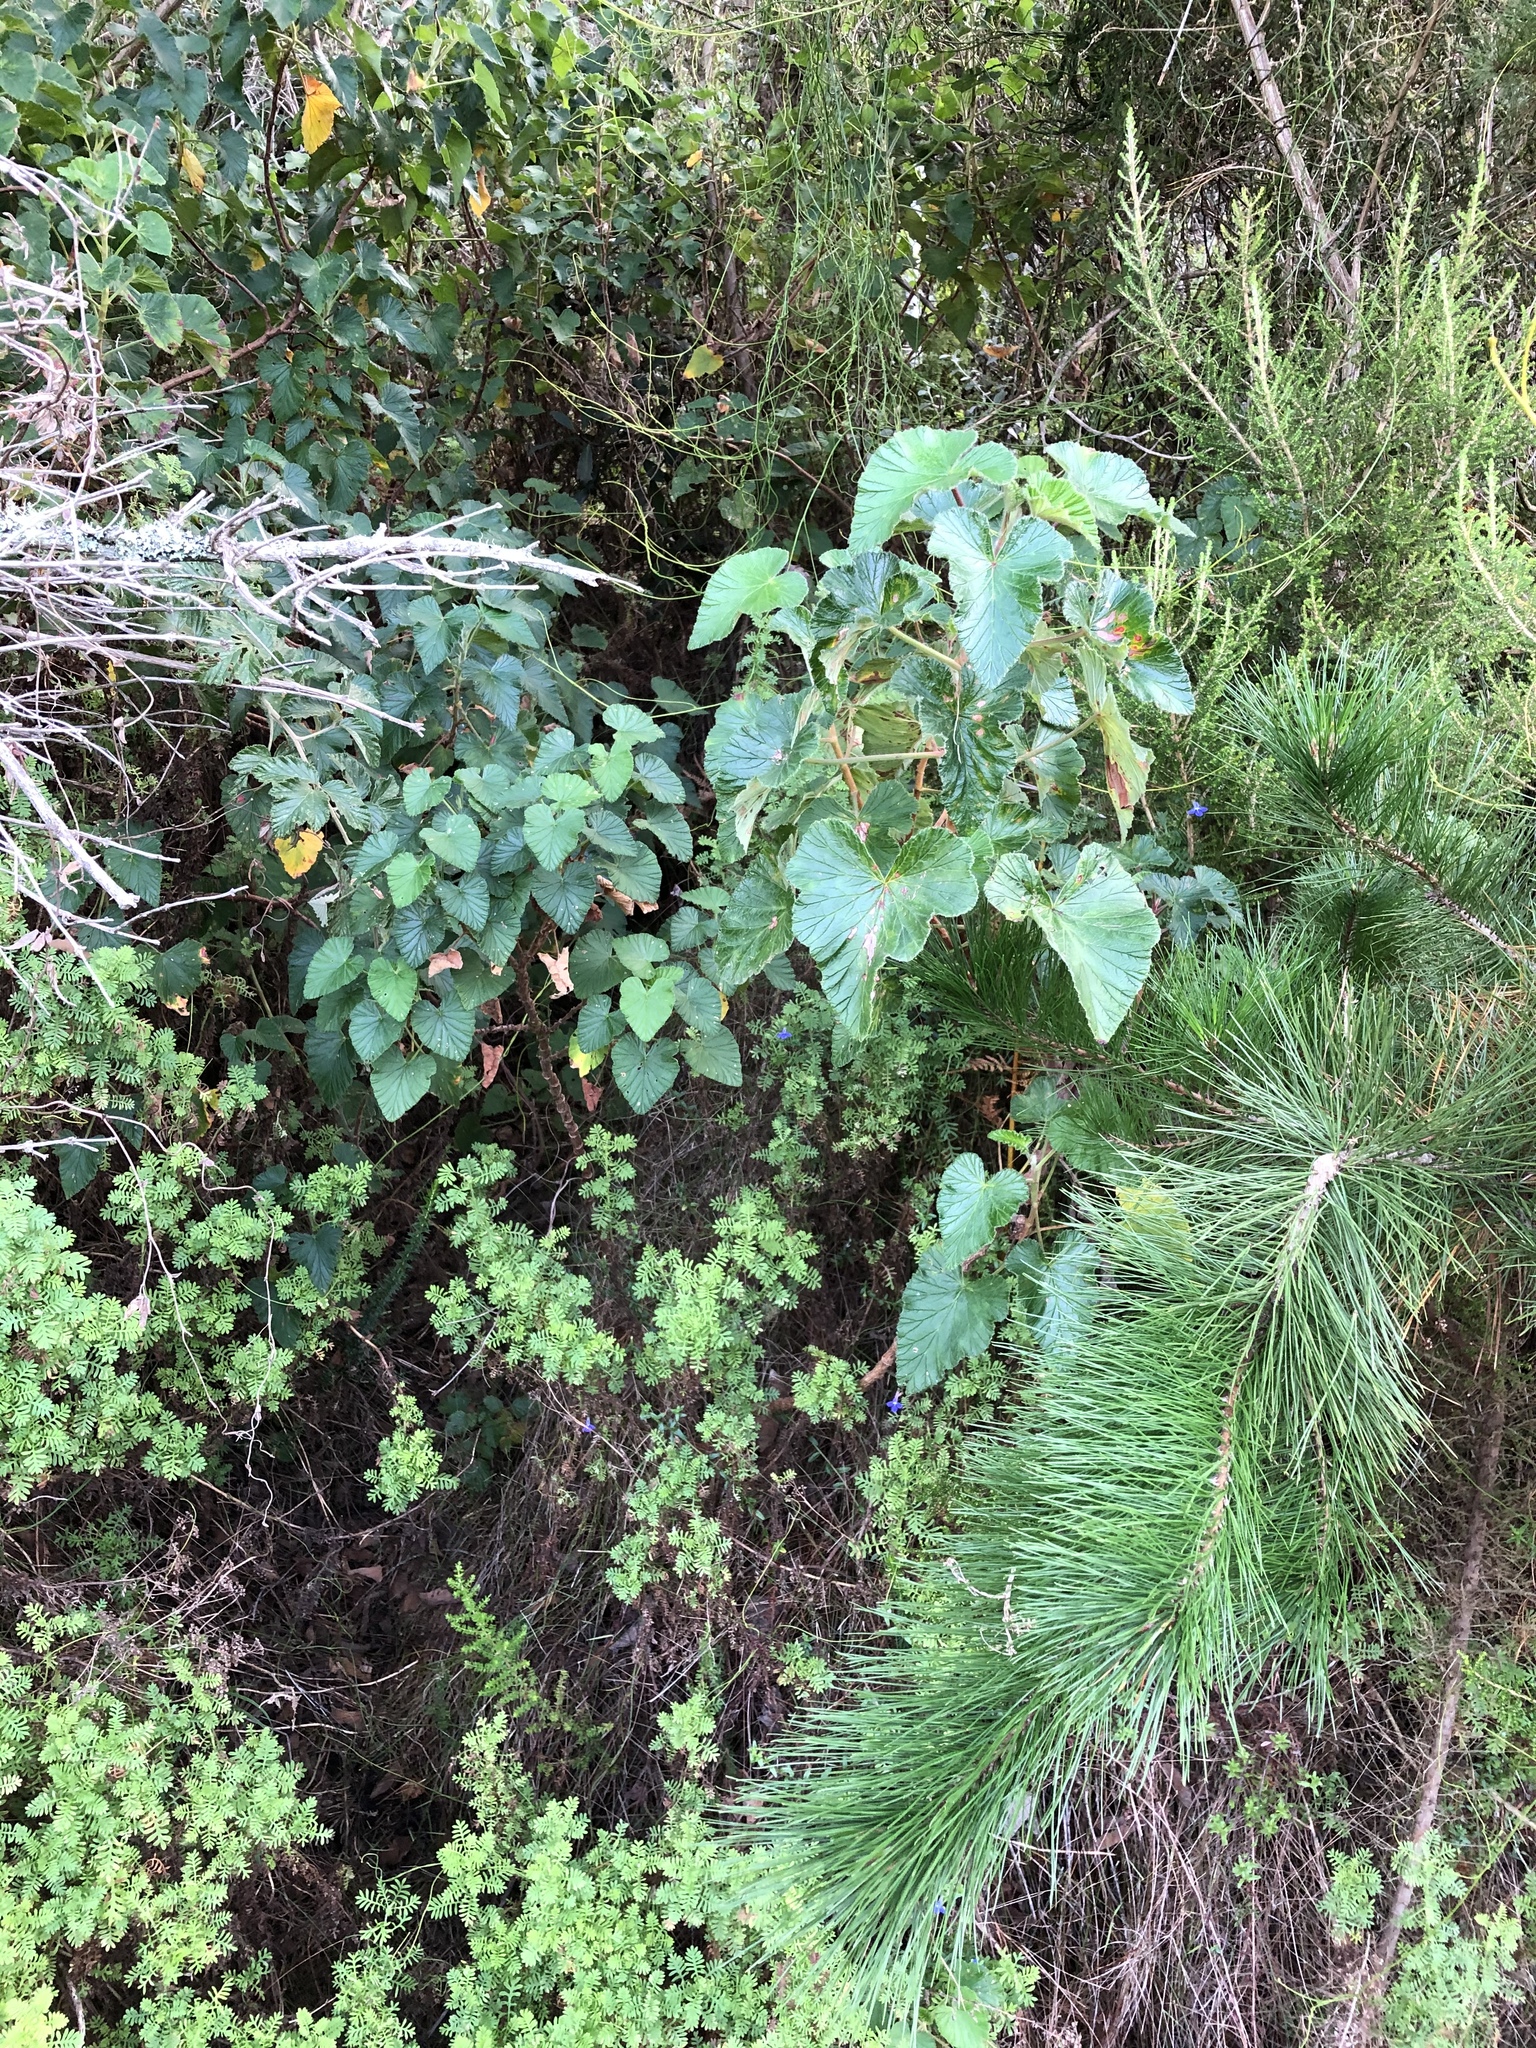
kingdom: Plantae
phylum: Tracheophyta
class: Magnoliopsida
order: Geraniales
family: Geraniaceae
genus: Pelargonium
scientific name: Pelargonium cordifolium
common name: Heart-leaf pelargonium
